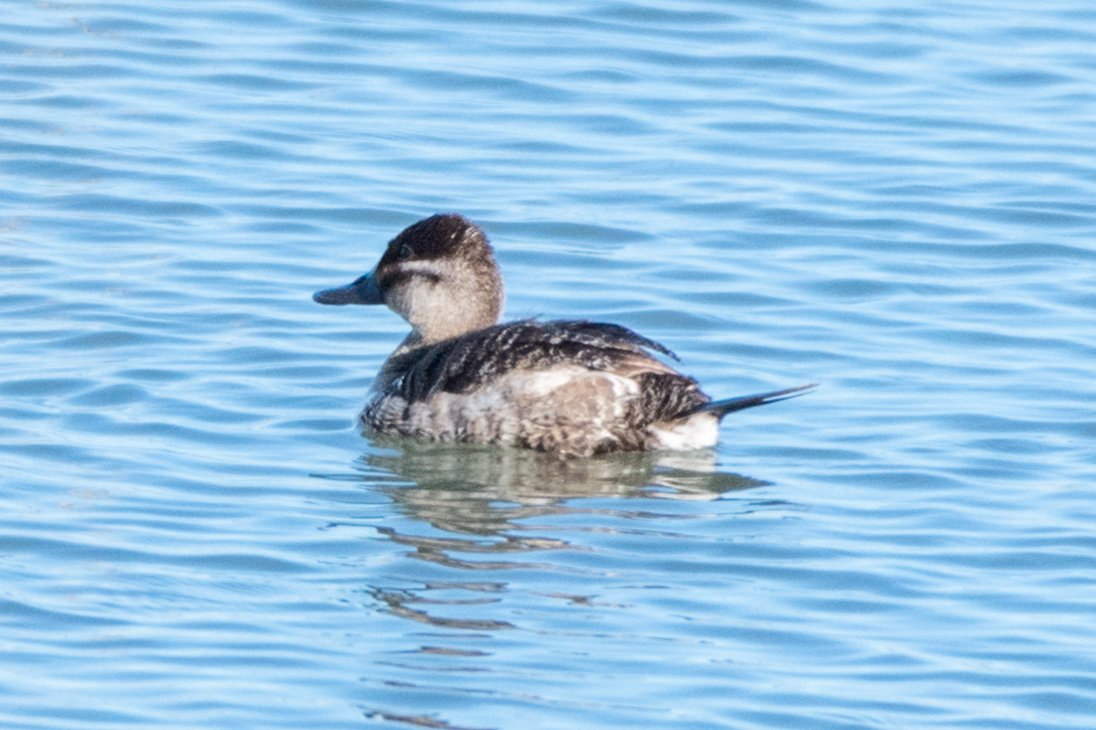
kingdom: Animalia
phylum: Chordata
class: Aves
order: Anseriformes
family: Anatidae
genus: Oxyura
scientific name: Oxyura jamaicensis
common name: Ruddy duck
